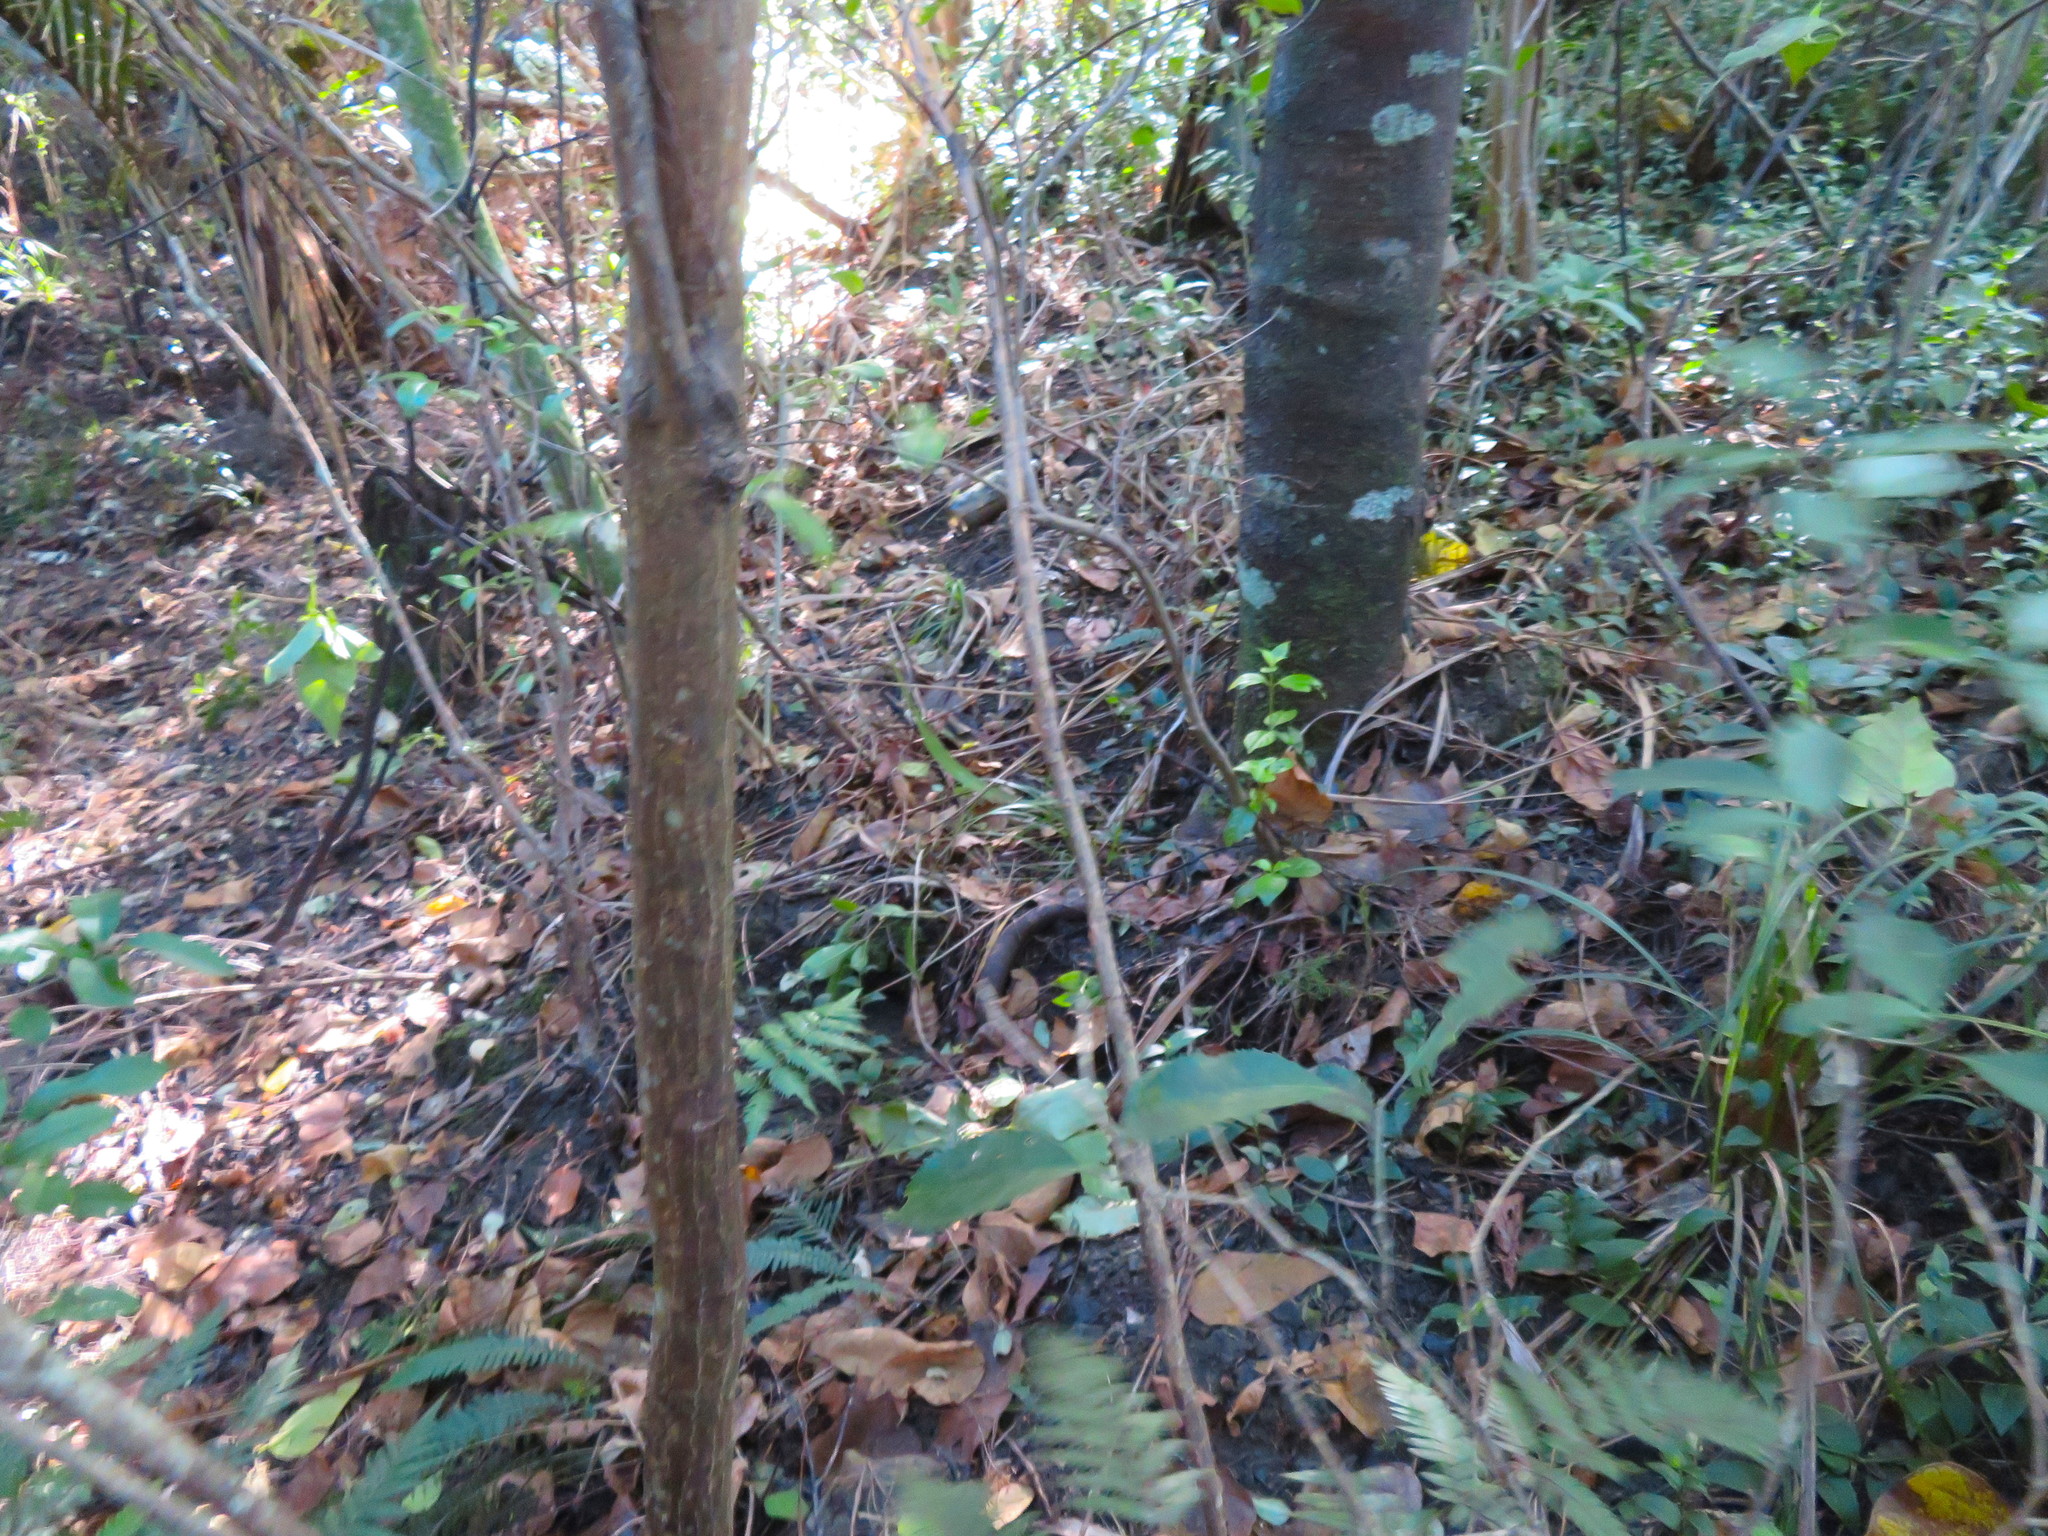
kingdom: Plantae
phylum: Tracheophyta
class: Magnoliopsida
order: Gentianales
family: Loganiaceae
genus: Geniostoma
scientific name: Geniostoma ligustrifolium
